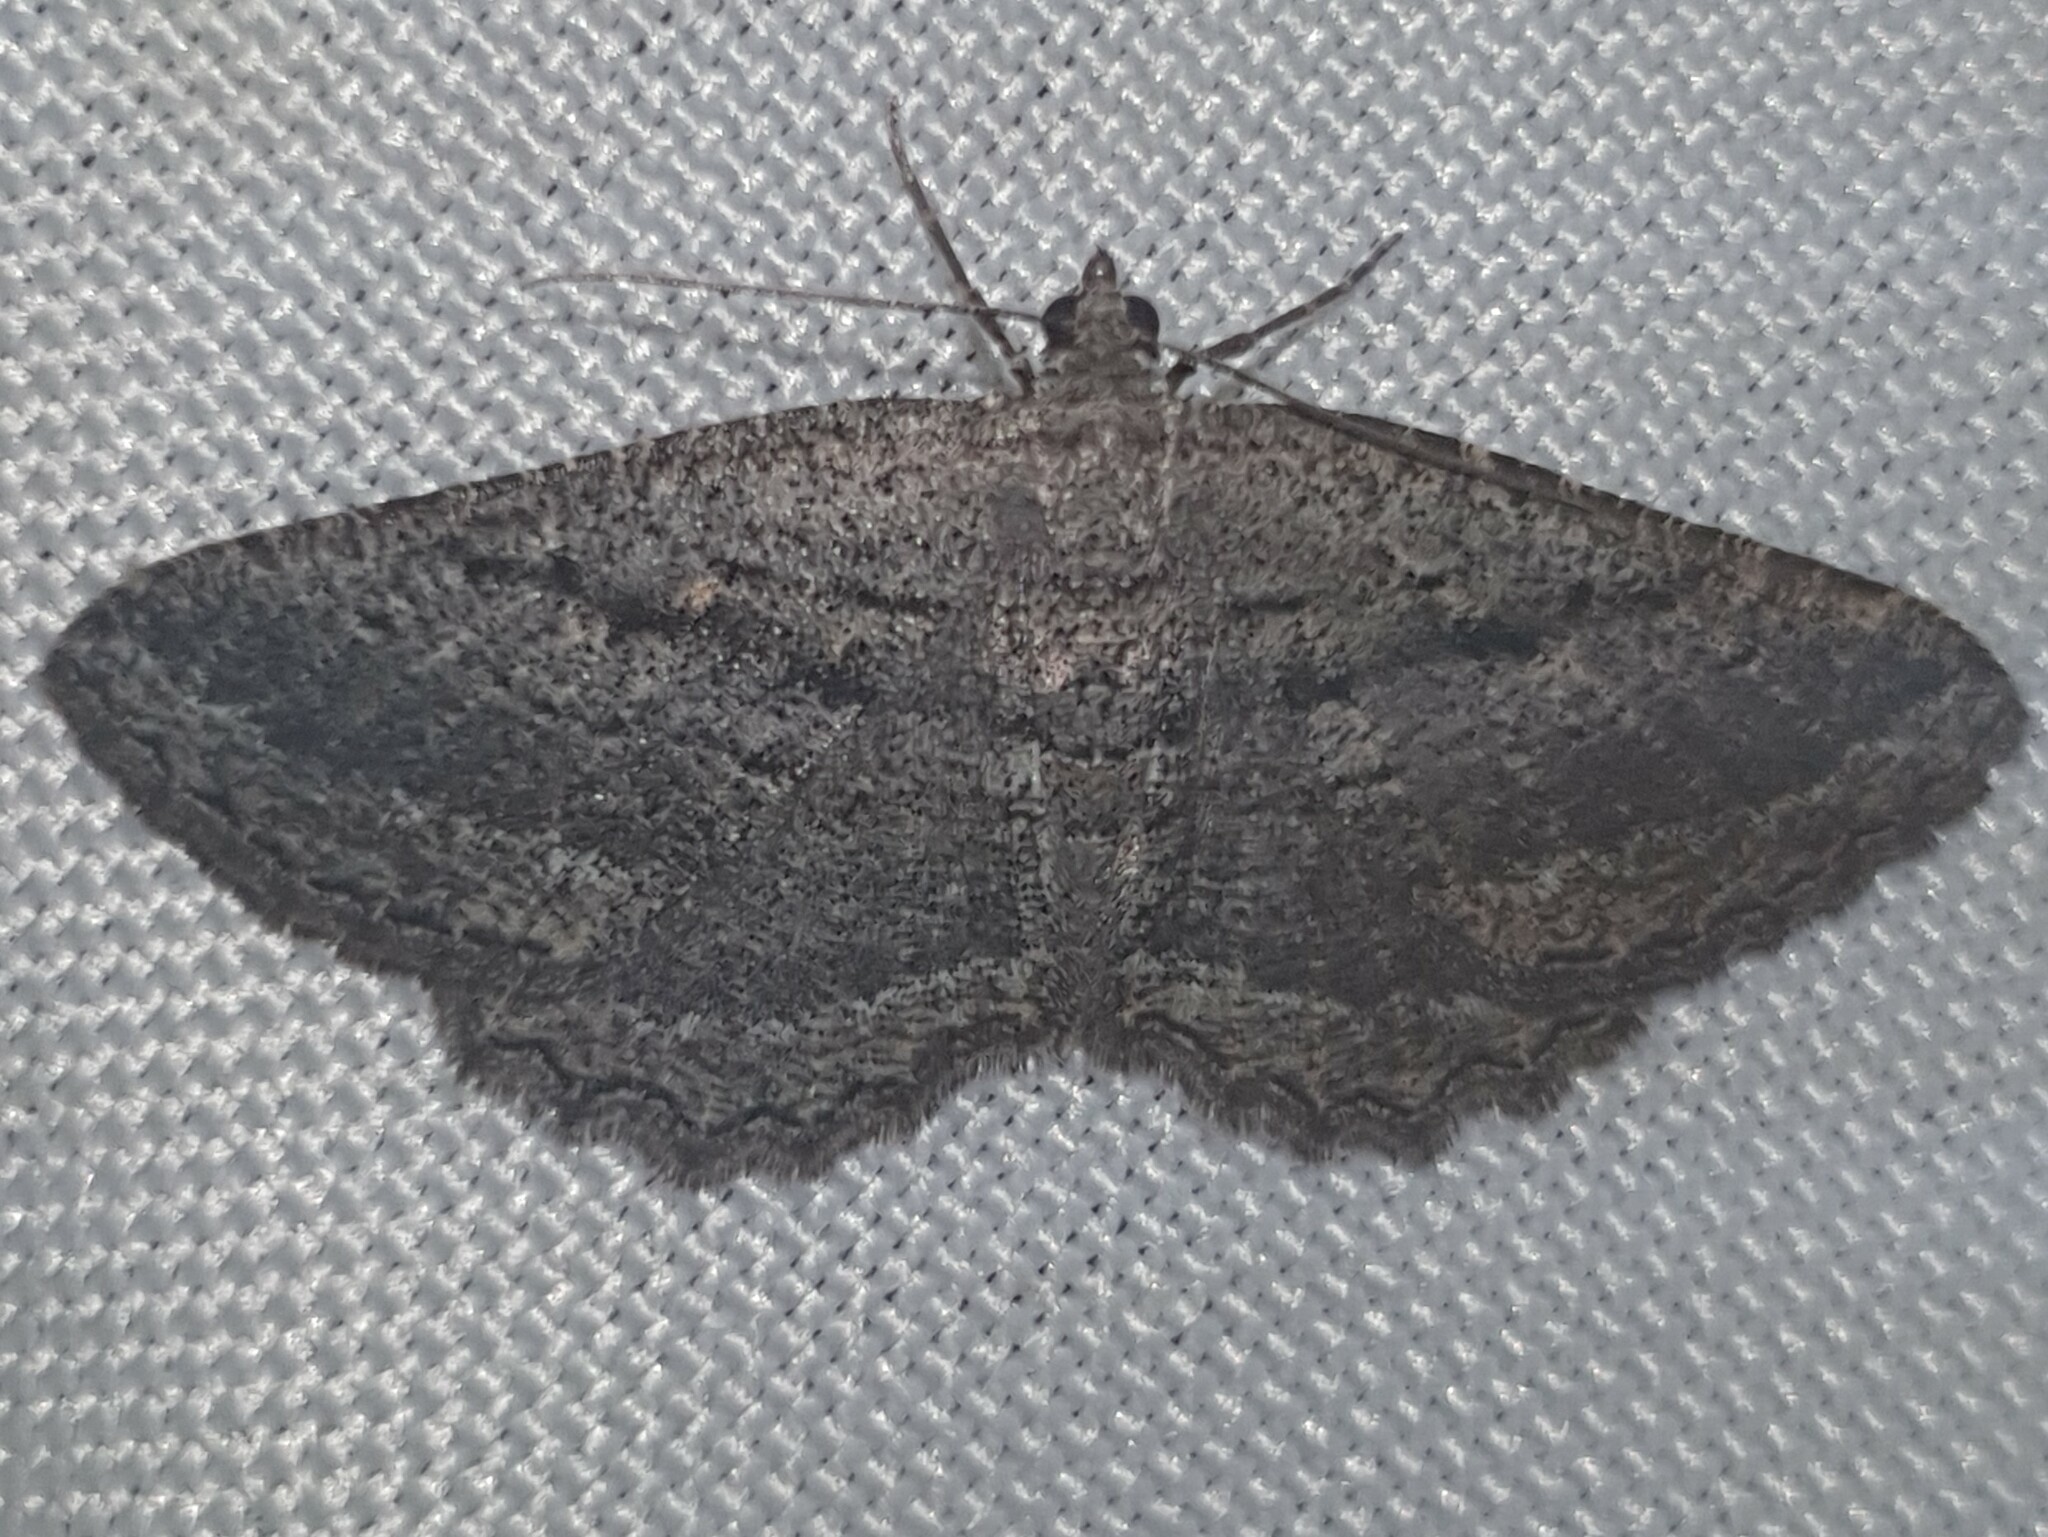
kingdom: Animalia
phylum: Arthropoda
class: Insecta
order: Lepidoptera
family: Geometridae
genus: Rhoptria
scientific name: Rhoptria asperaria
